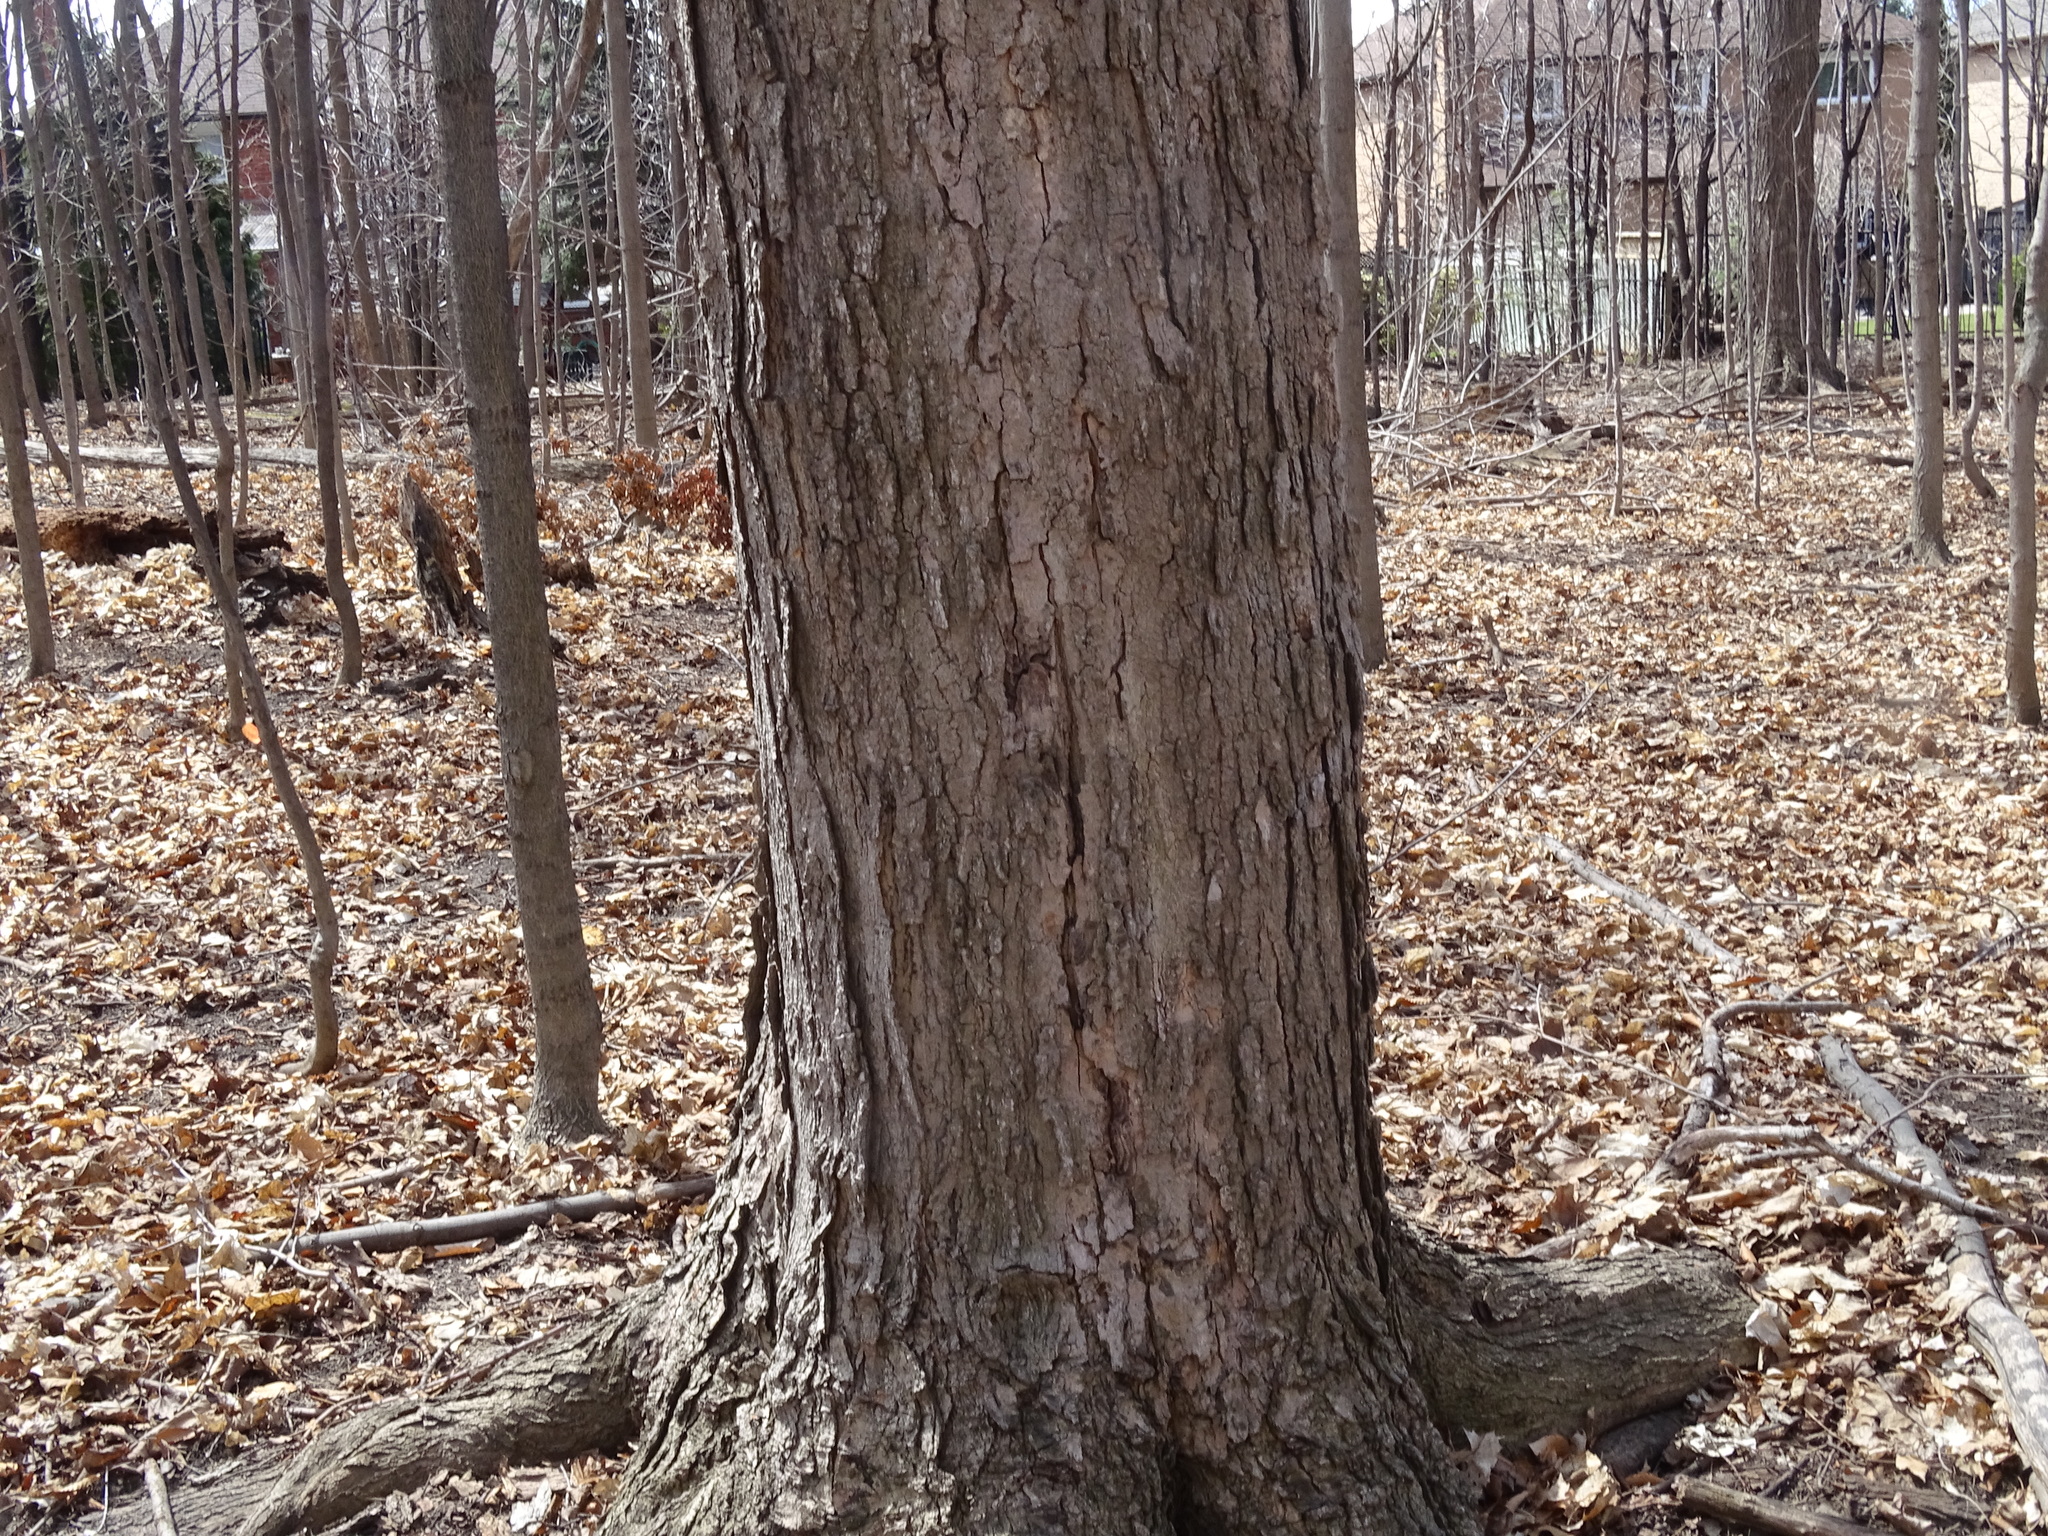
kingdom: Plantae
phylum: Tracheophyta
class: Magnoliopsida
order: Sapindales
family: Sapindaceae
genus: Acer
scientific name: Acer saccharum
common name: Sugar maple
